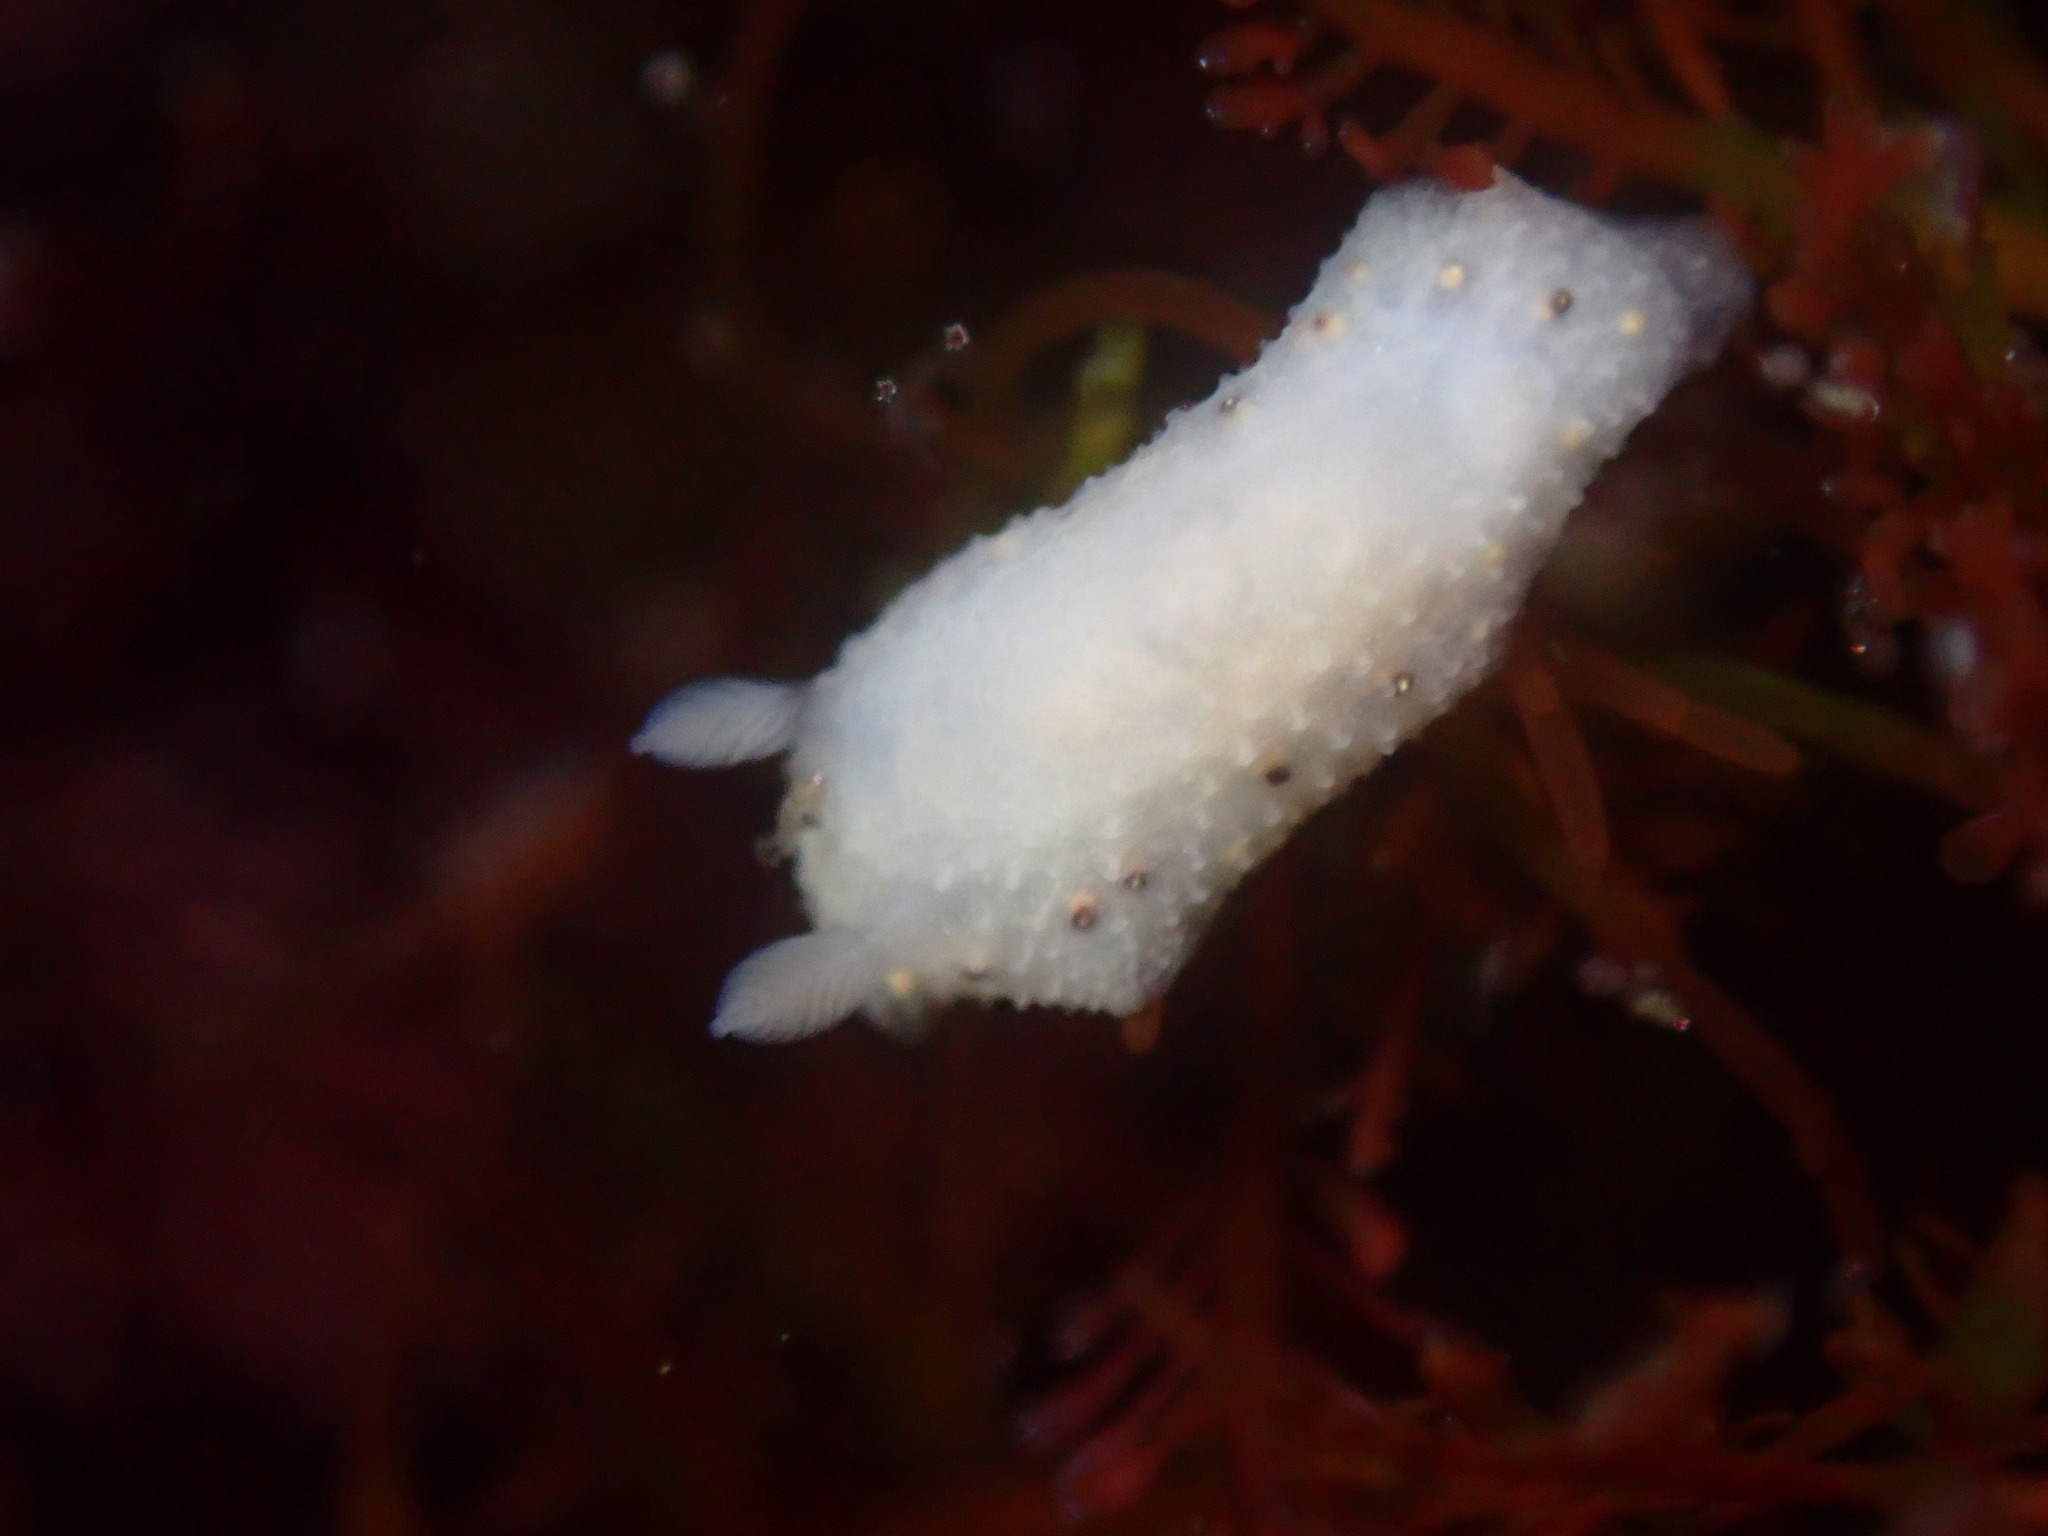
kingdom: Animalia
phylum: Mollusca
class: Gastropoda
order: Nudibranchia
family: Cadlinidae
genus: Cadlina
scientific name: Cadlina sparsa
